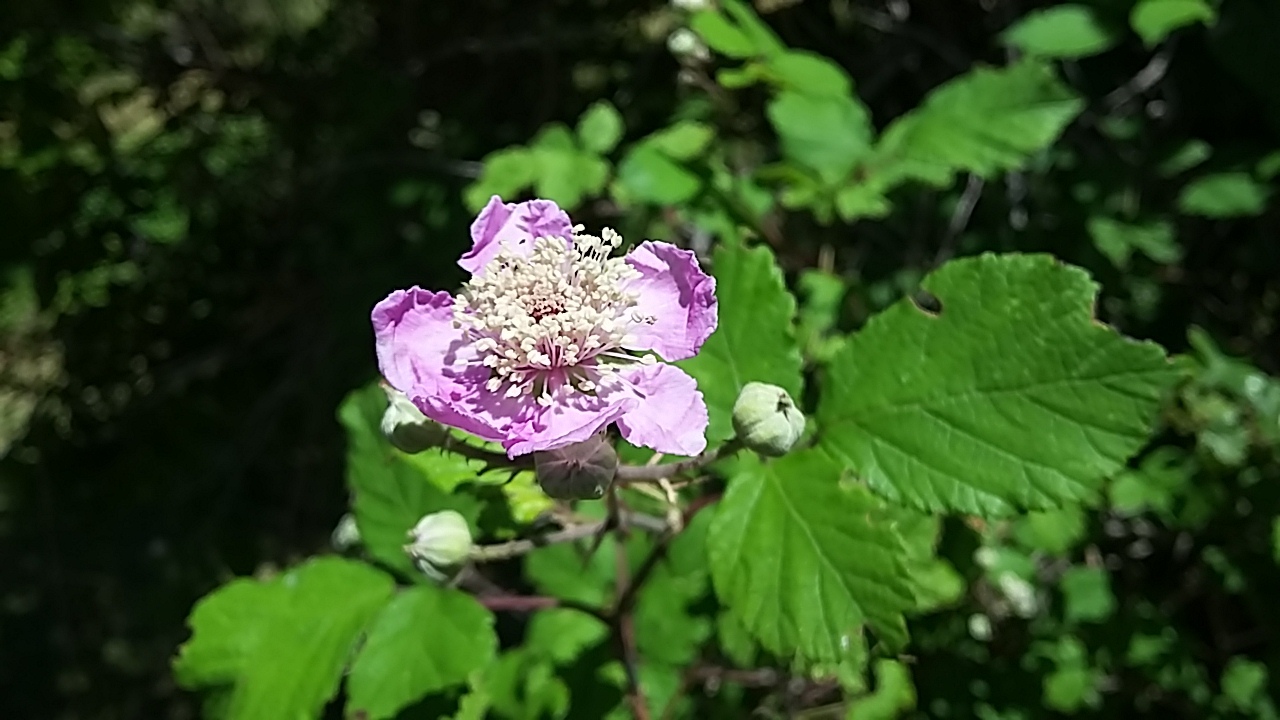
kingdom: Plantae
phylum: Tracheophyta
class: Magnoliopsida
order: Rosales
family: Rosaceae
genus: Rubus
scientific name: Rubus ulmifolius
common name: Elmleaf blackberry
